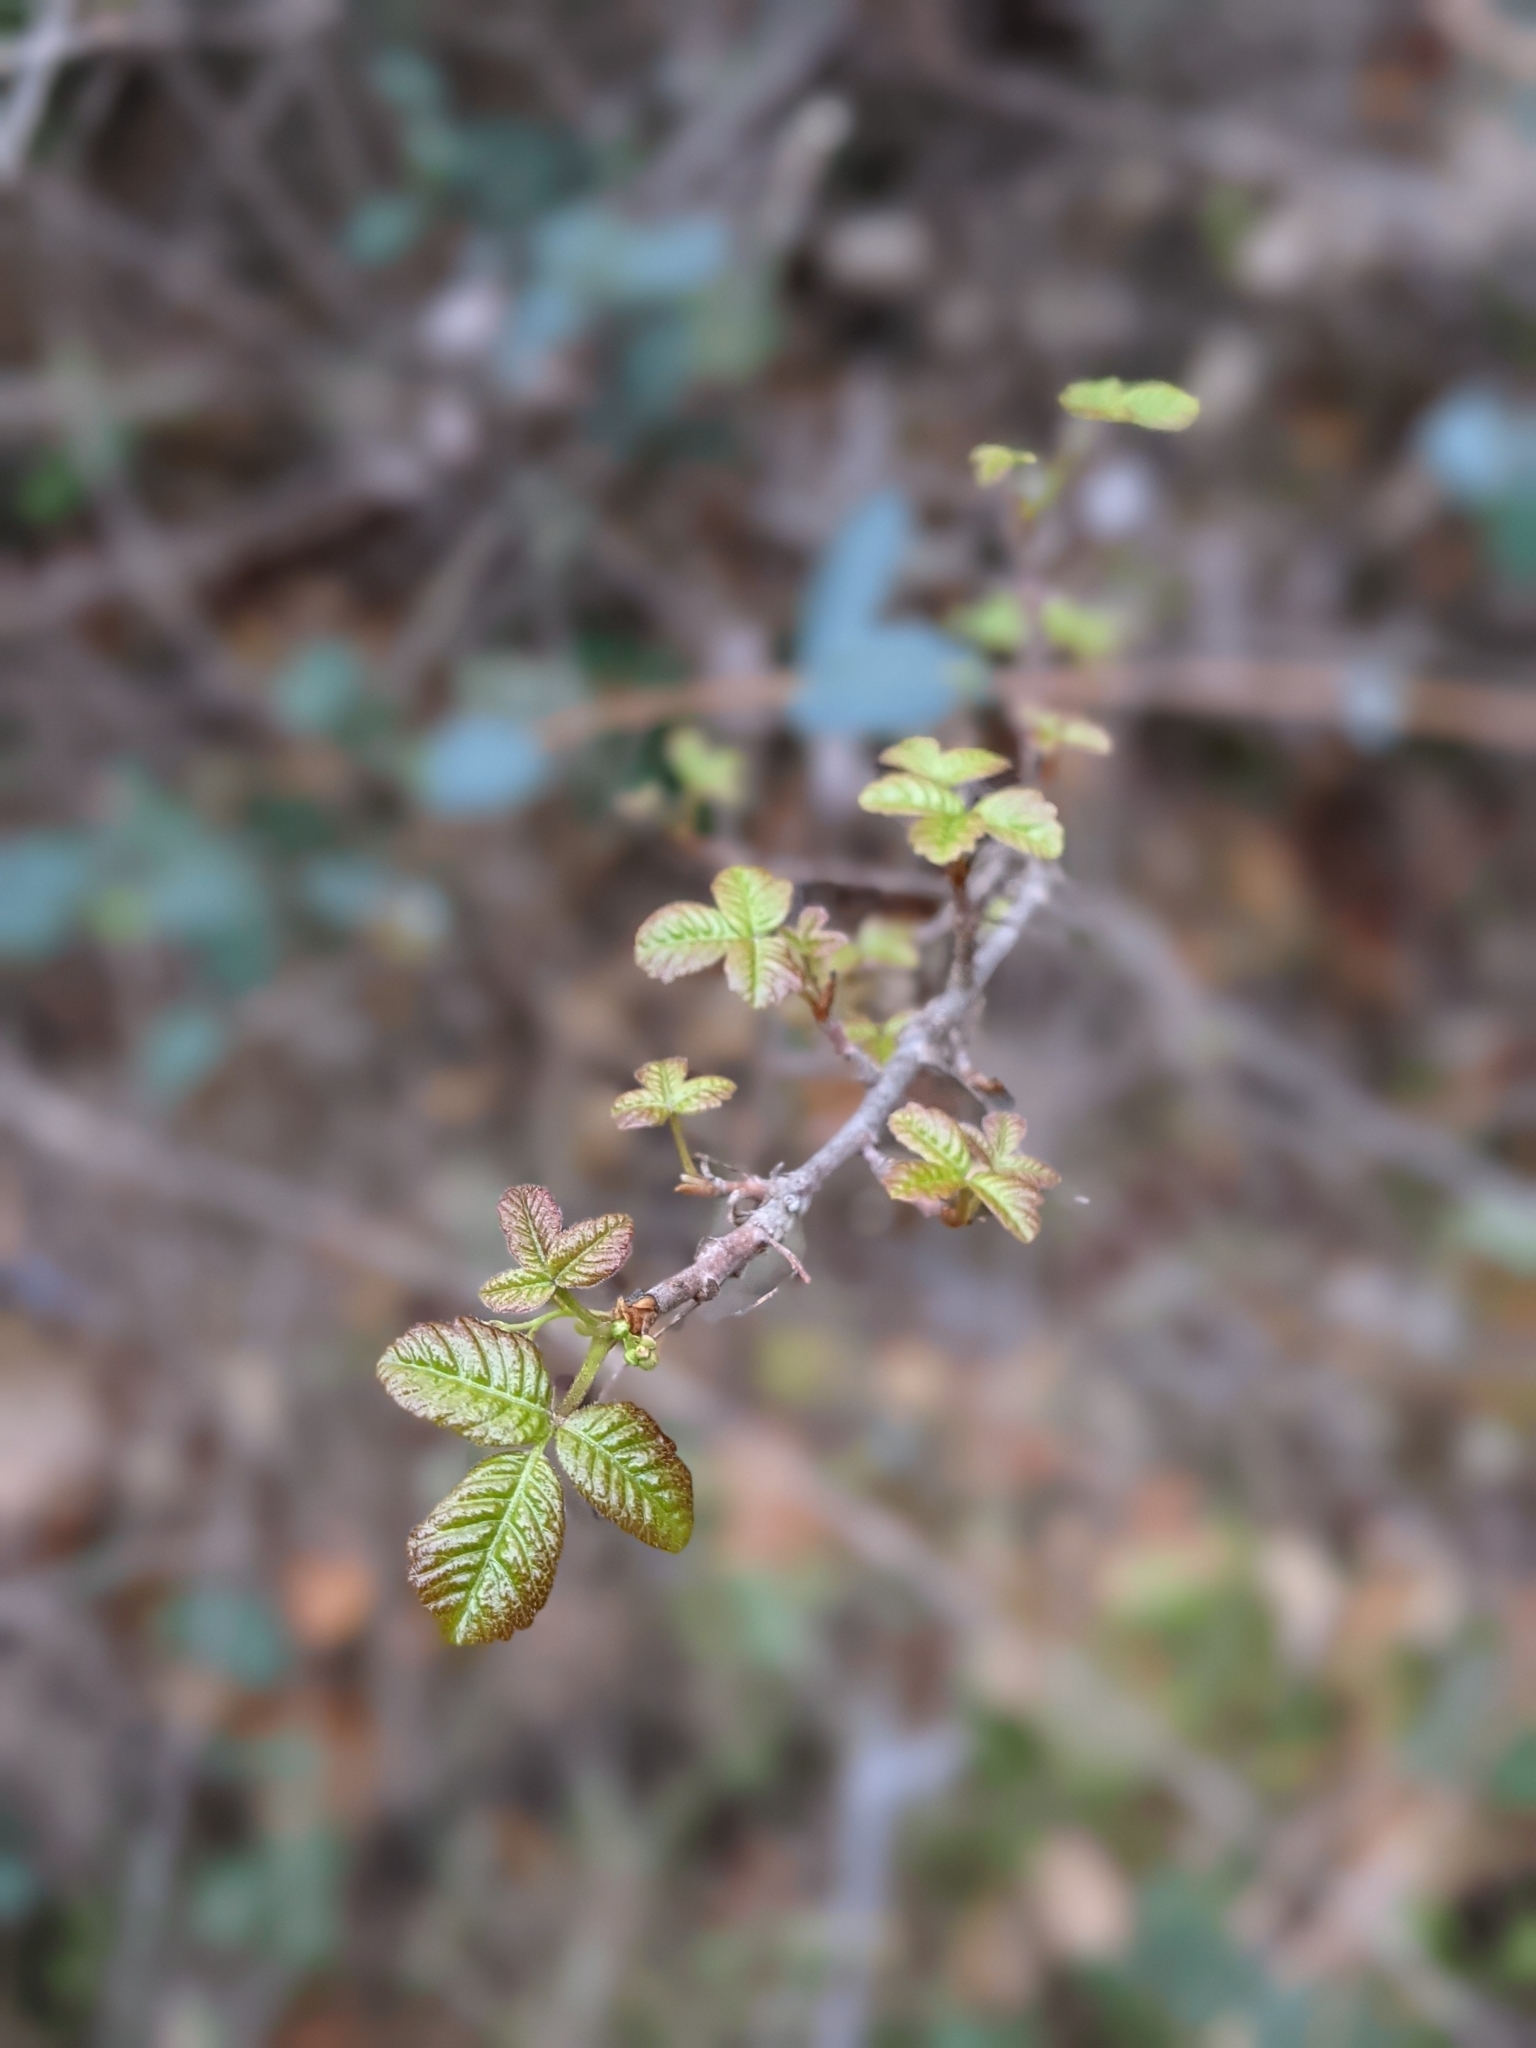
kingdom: Plantae
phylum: Tracheophyta
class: Magnoliopsida
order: Sapindales
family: Anacardiaceae
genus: Toxicodendron
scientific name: Toxicodendron diversilobum
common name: Pacific poison-oak
